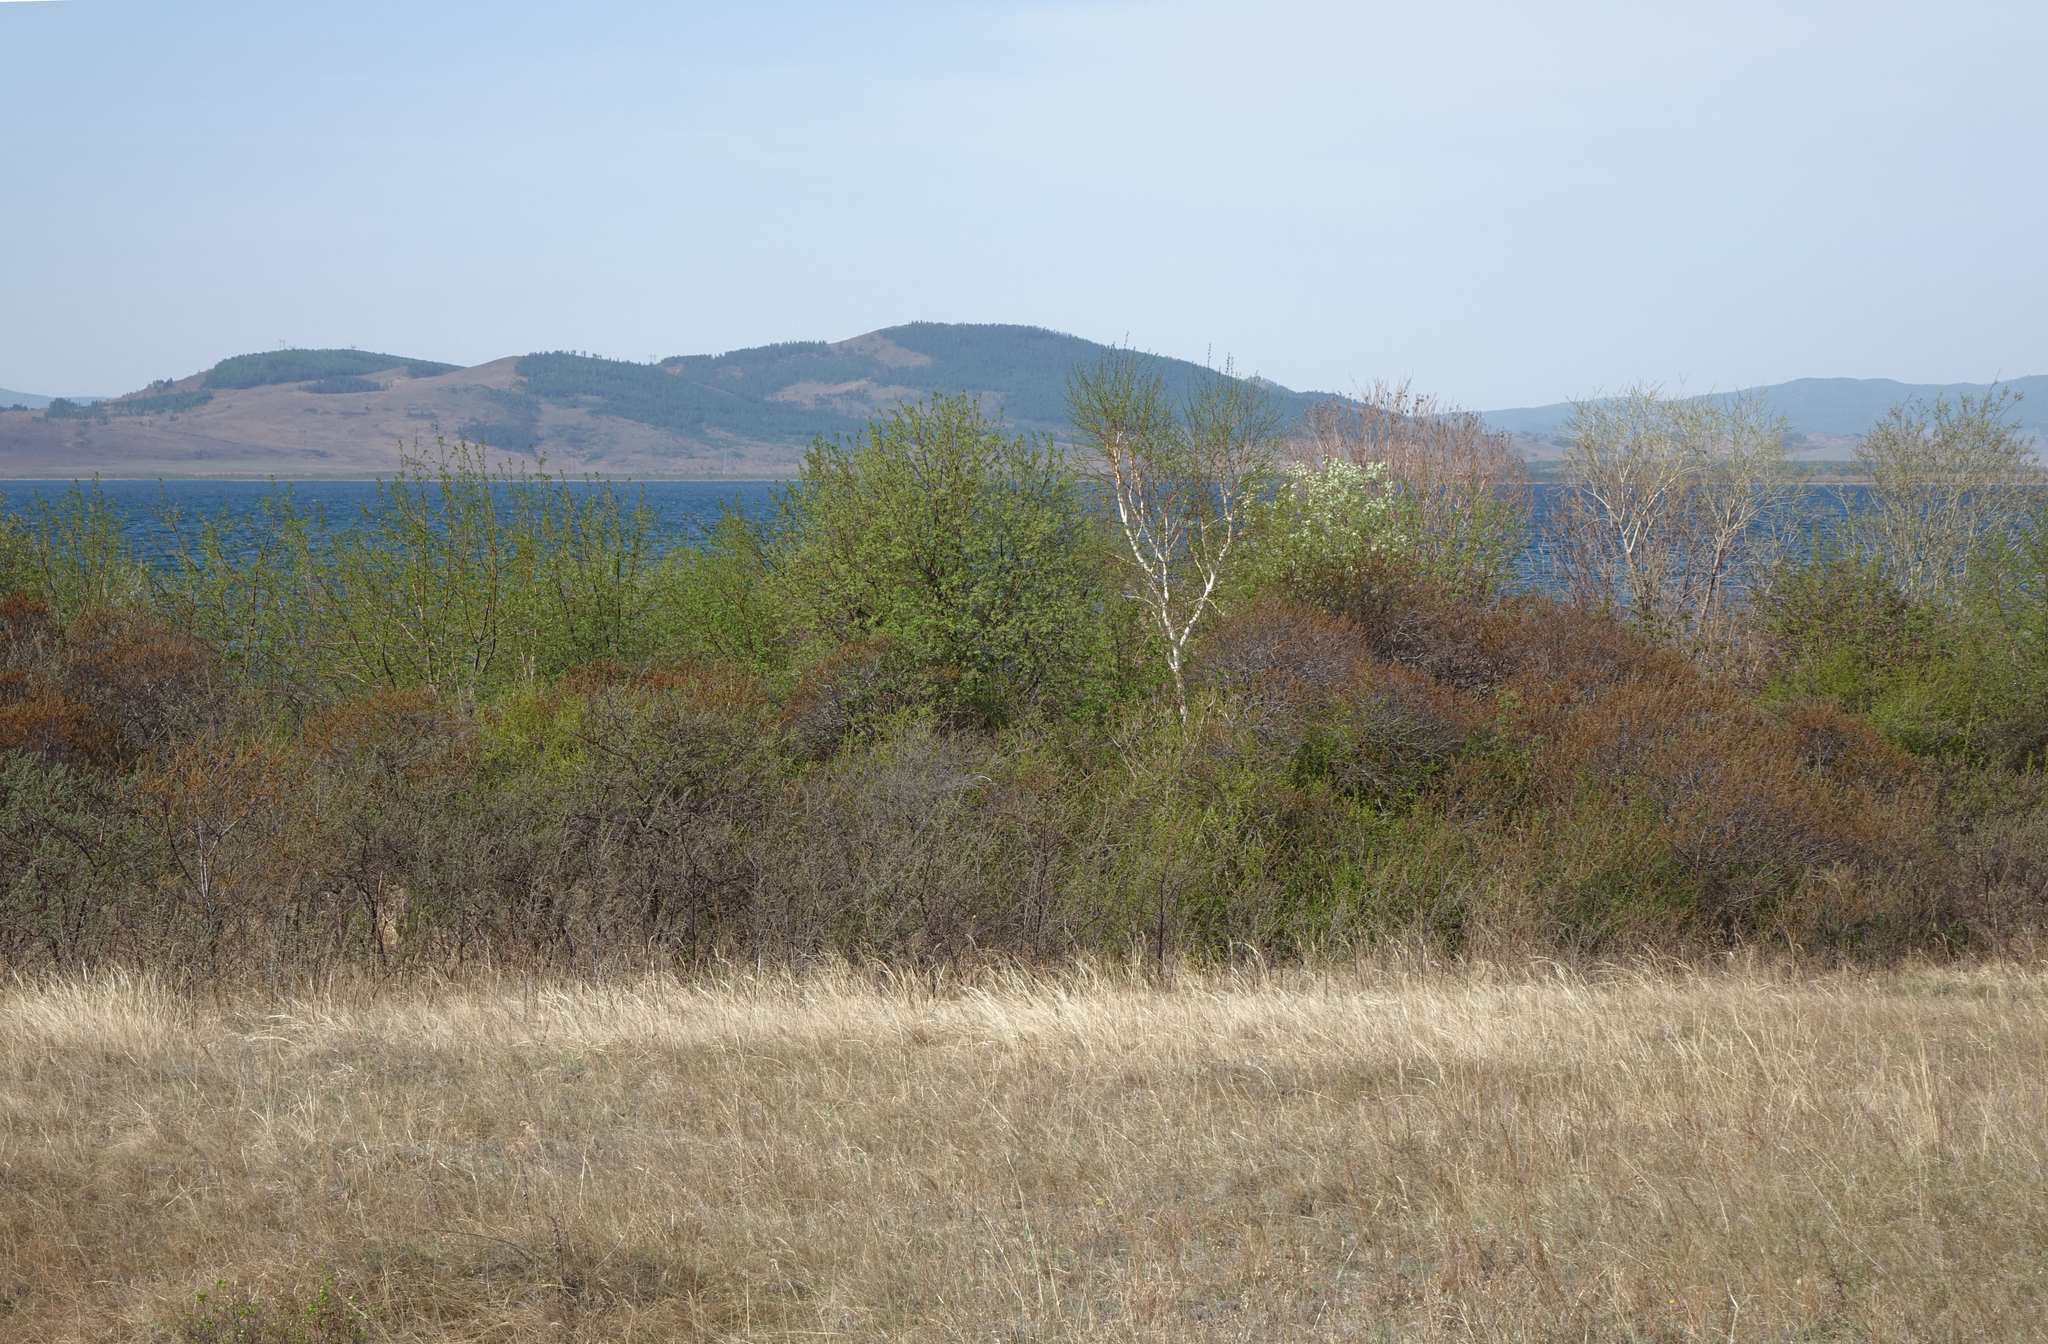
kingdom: Plantae
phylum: Tracheophyta
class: Magnoliopsida
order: Rosales
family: Elaeagnaceae
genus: Hippophae
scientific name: Hippophae rhamnoides
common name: Sea-buckthorn
